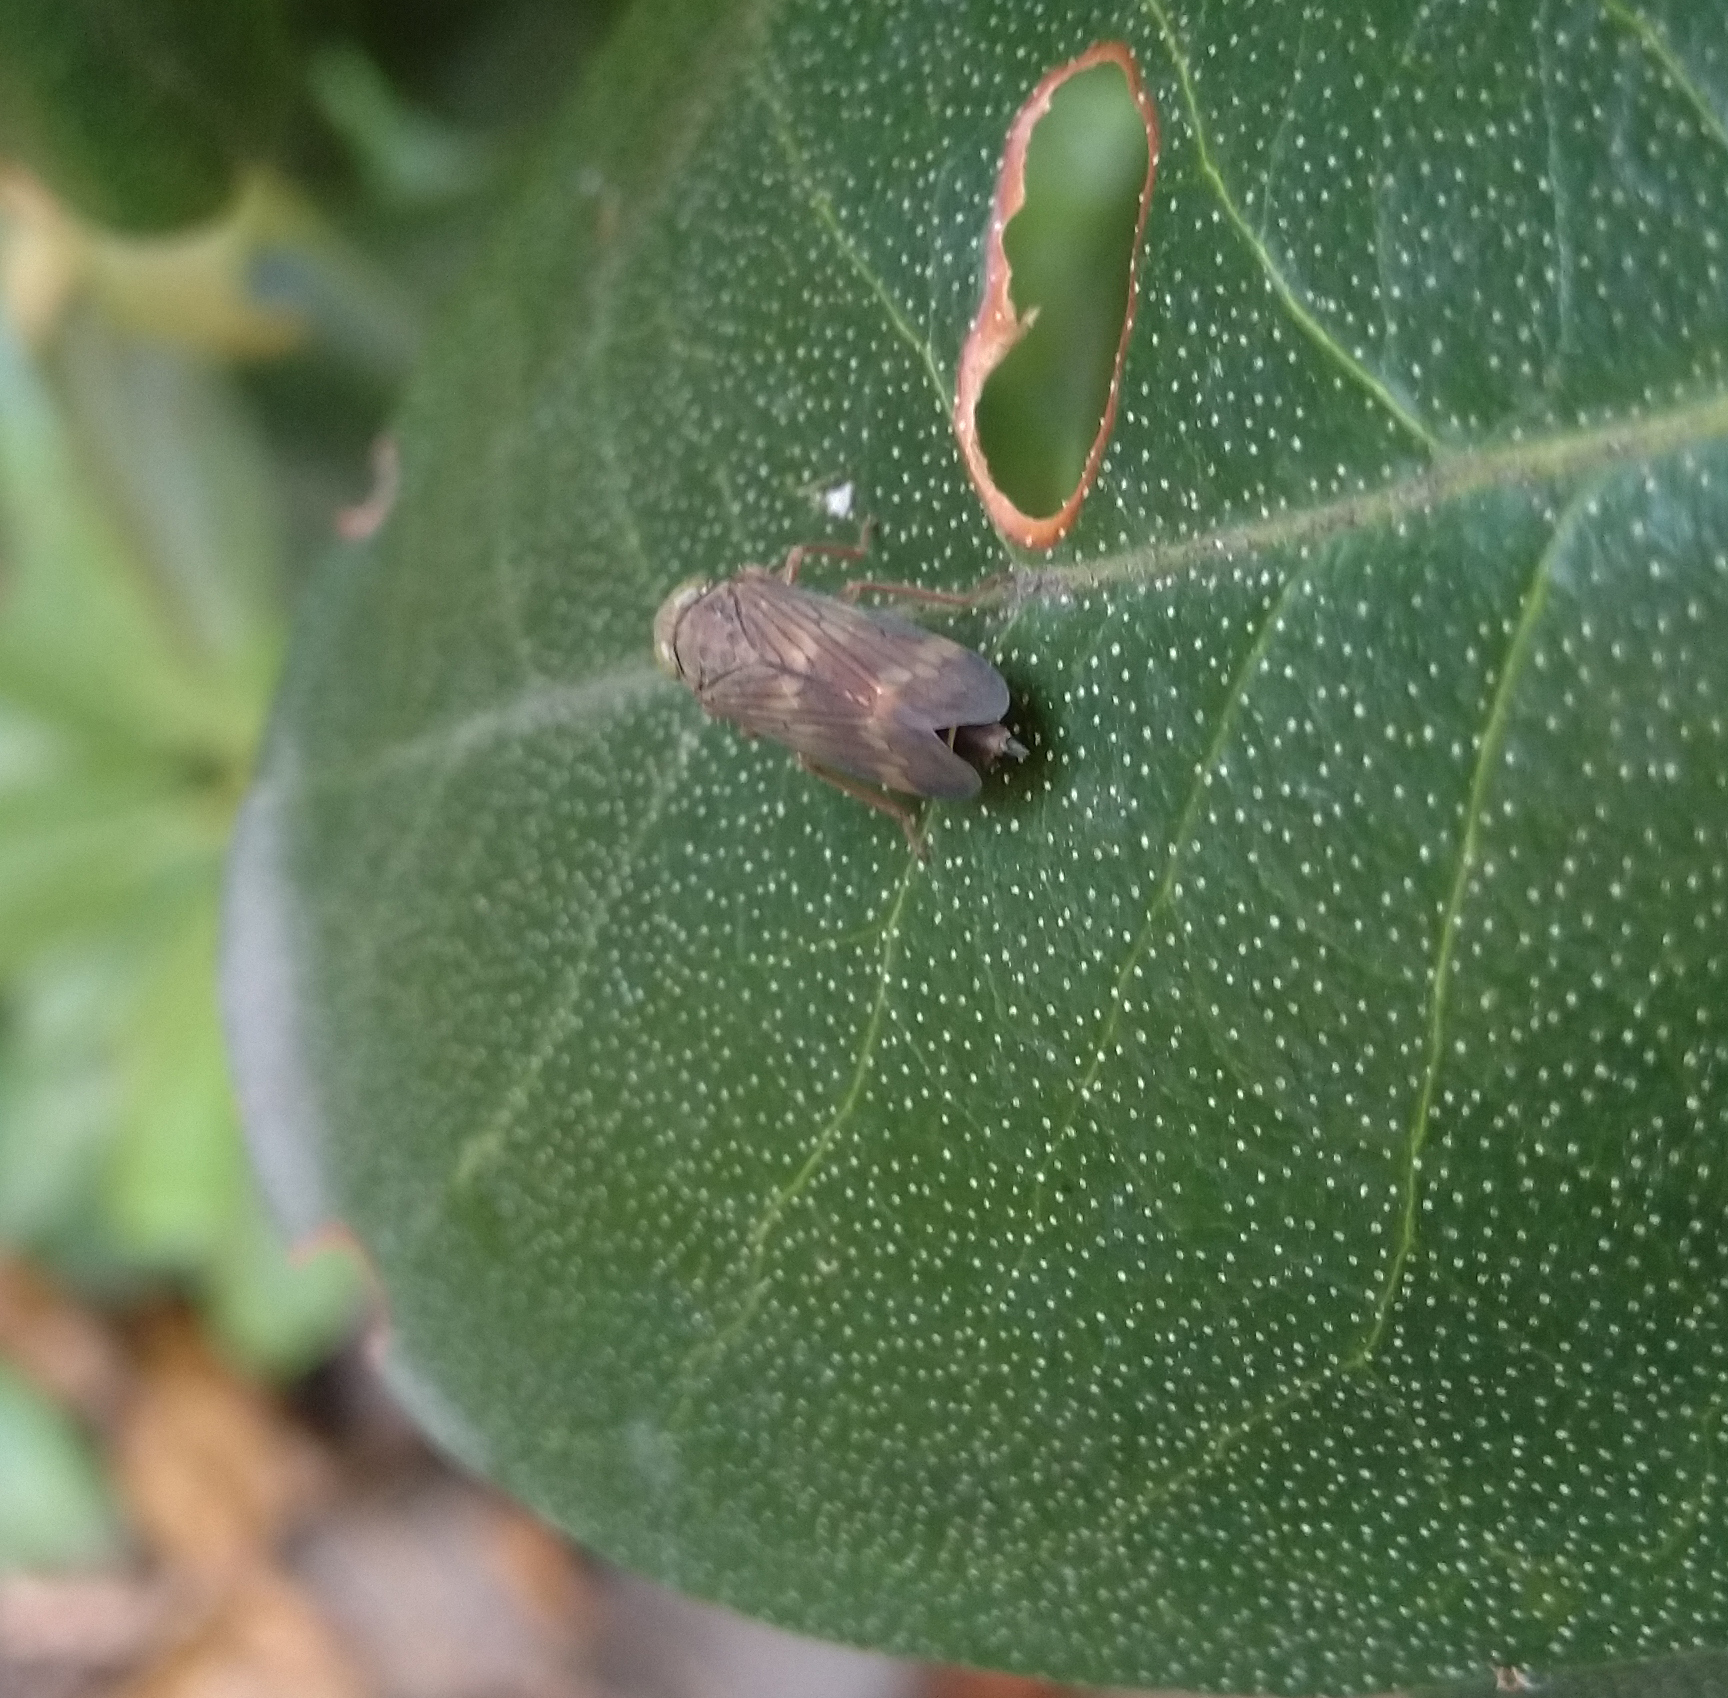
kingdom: Animalia
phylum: Arthropoda
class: Insecta
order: Hemiptera
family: Cicadellidae
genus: Jikradia
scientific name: Jikradia olitoria
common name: Coppery leafhopper
